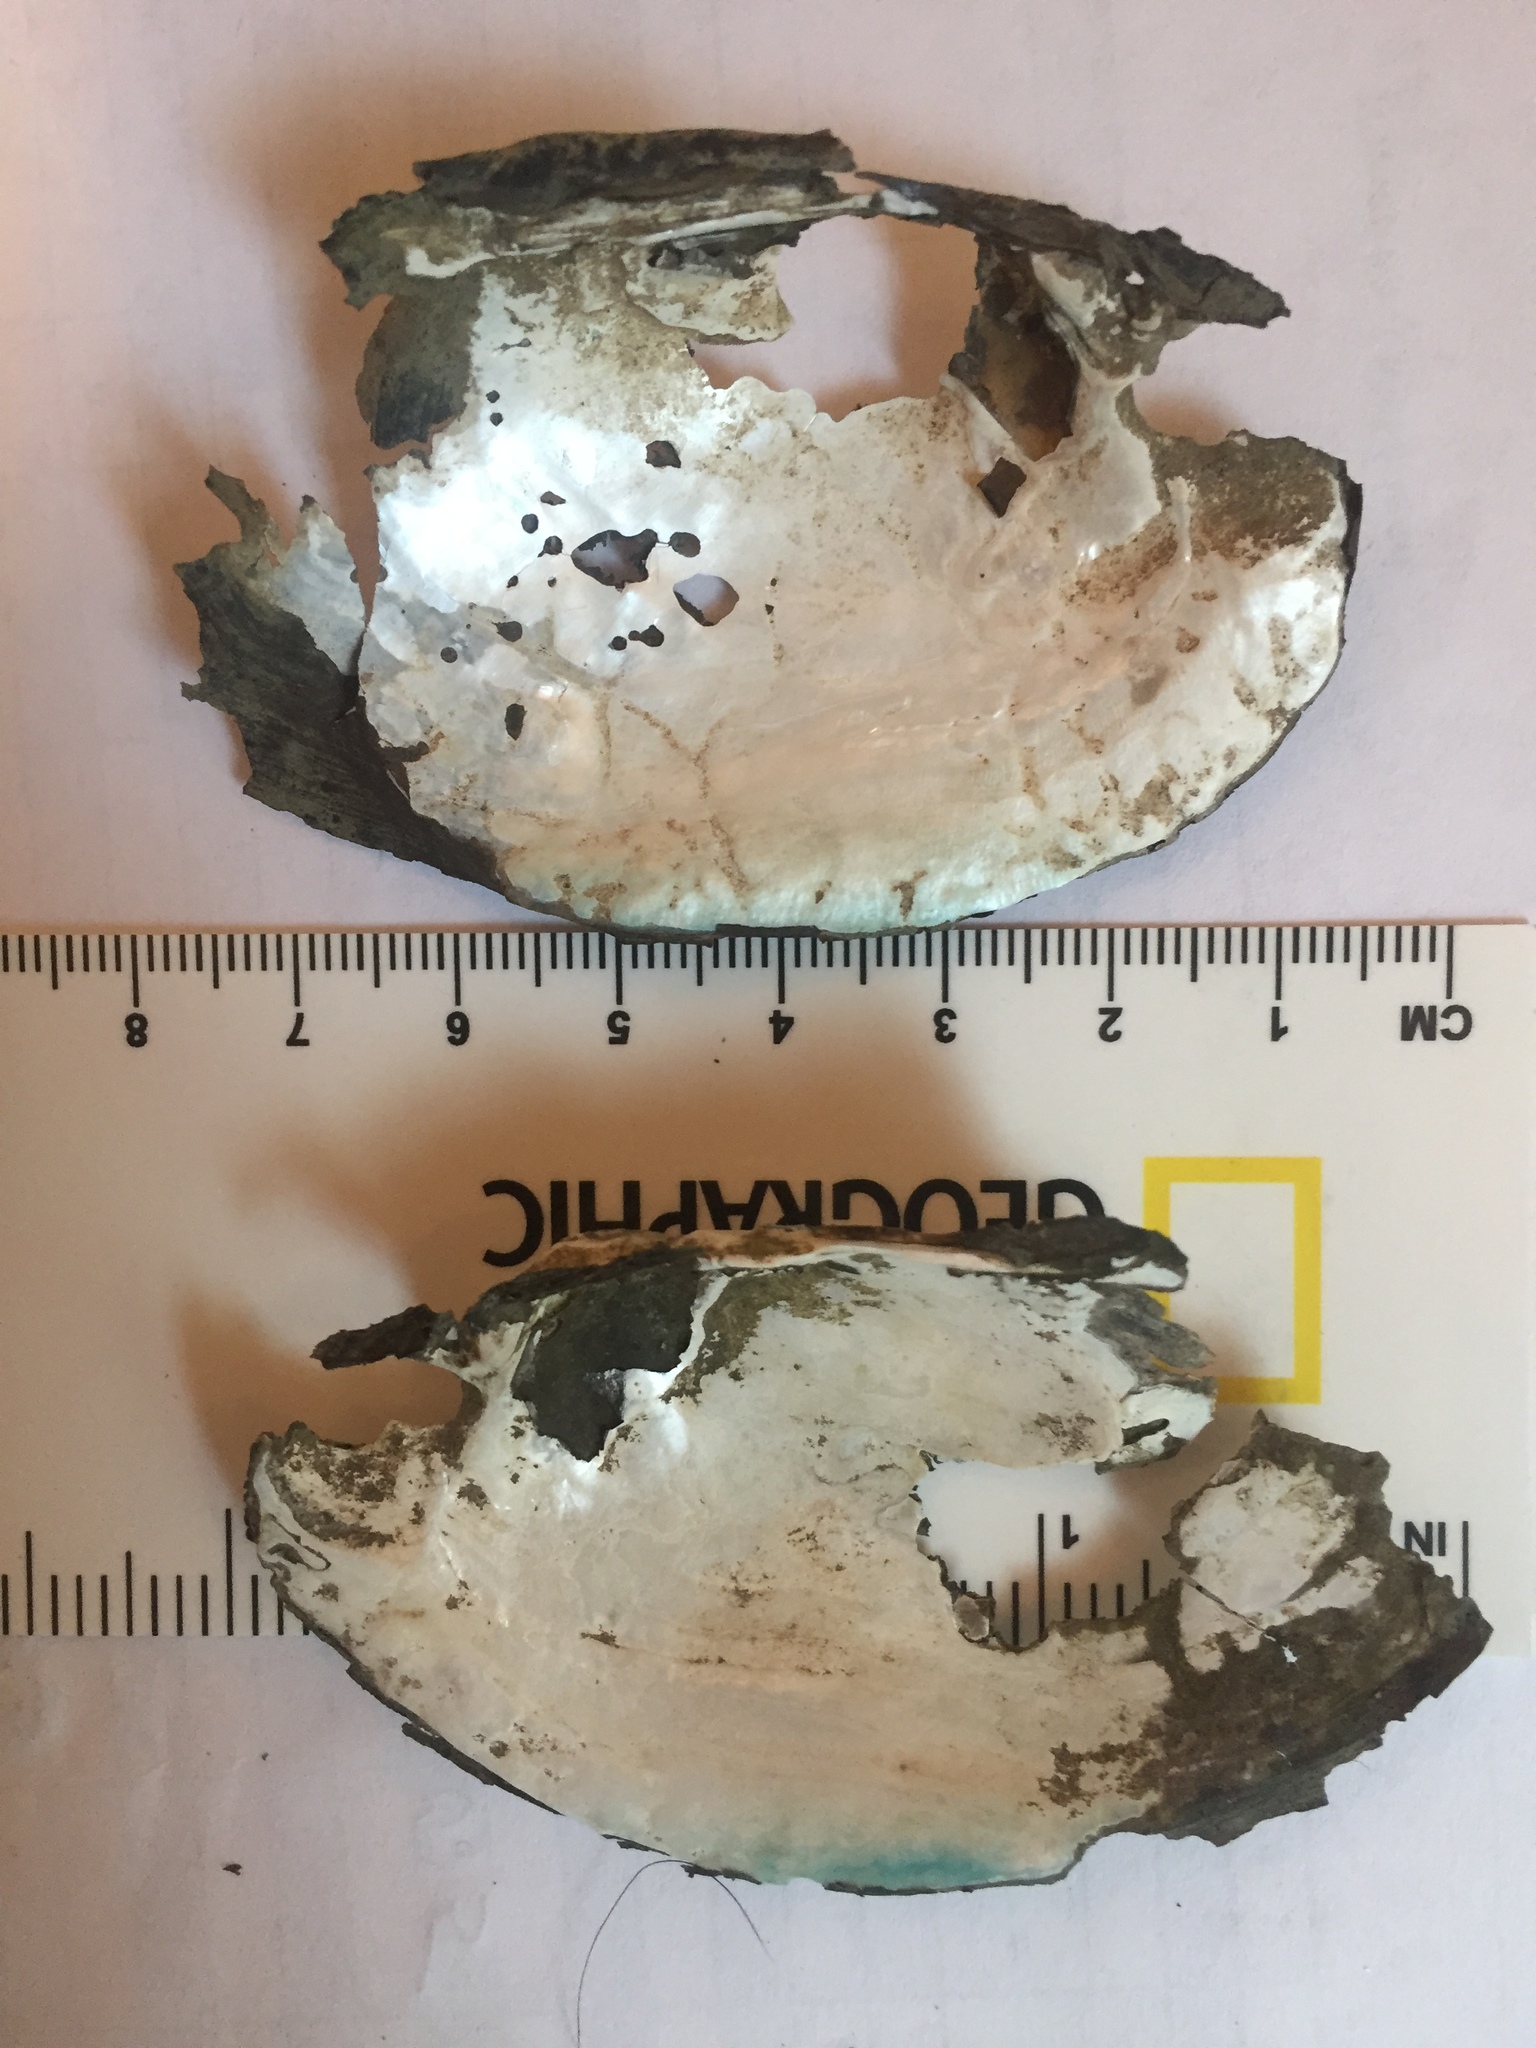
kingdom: Animalia
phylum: Mollusca
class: Bivalvia
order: Unionida
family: Unionidae
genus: Lampsilis
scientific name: Lampsilis radiata
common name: Eastern lampmussel
